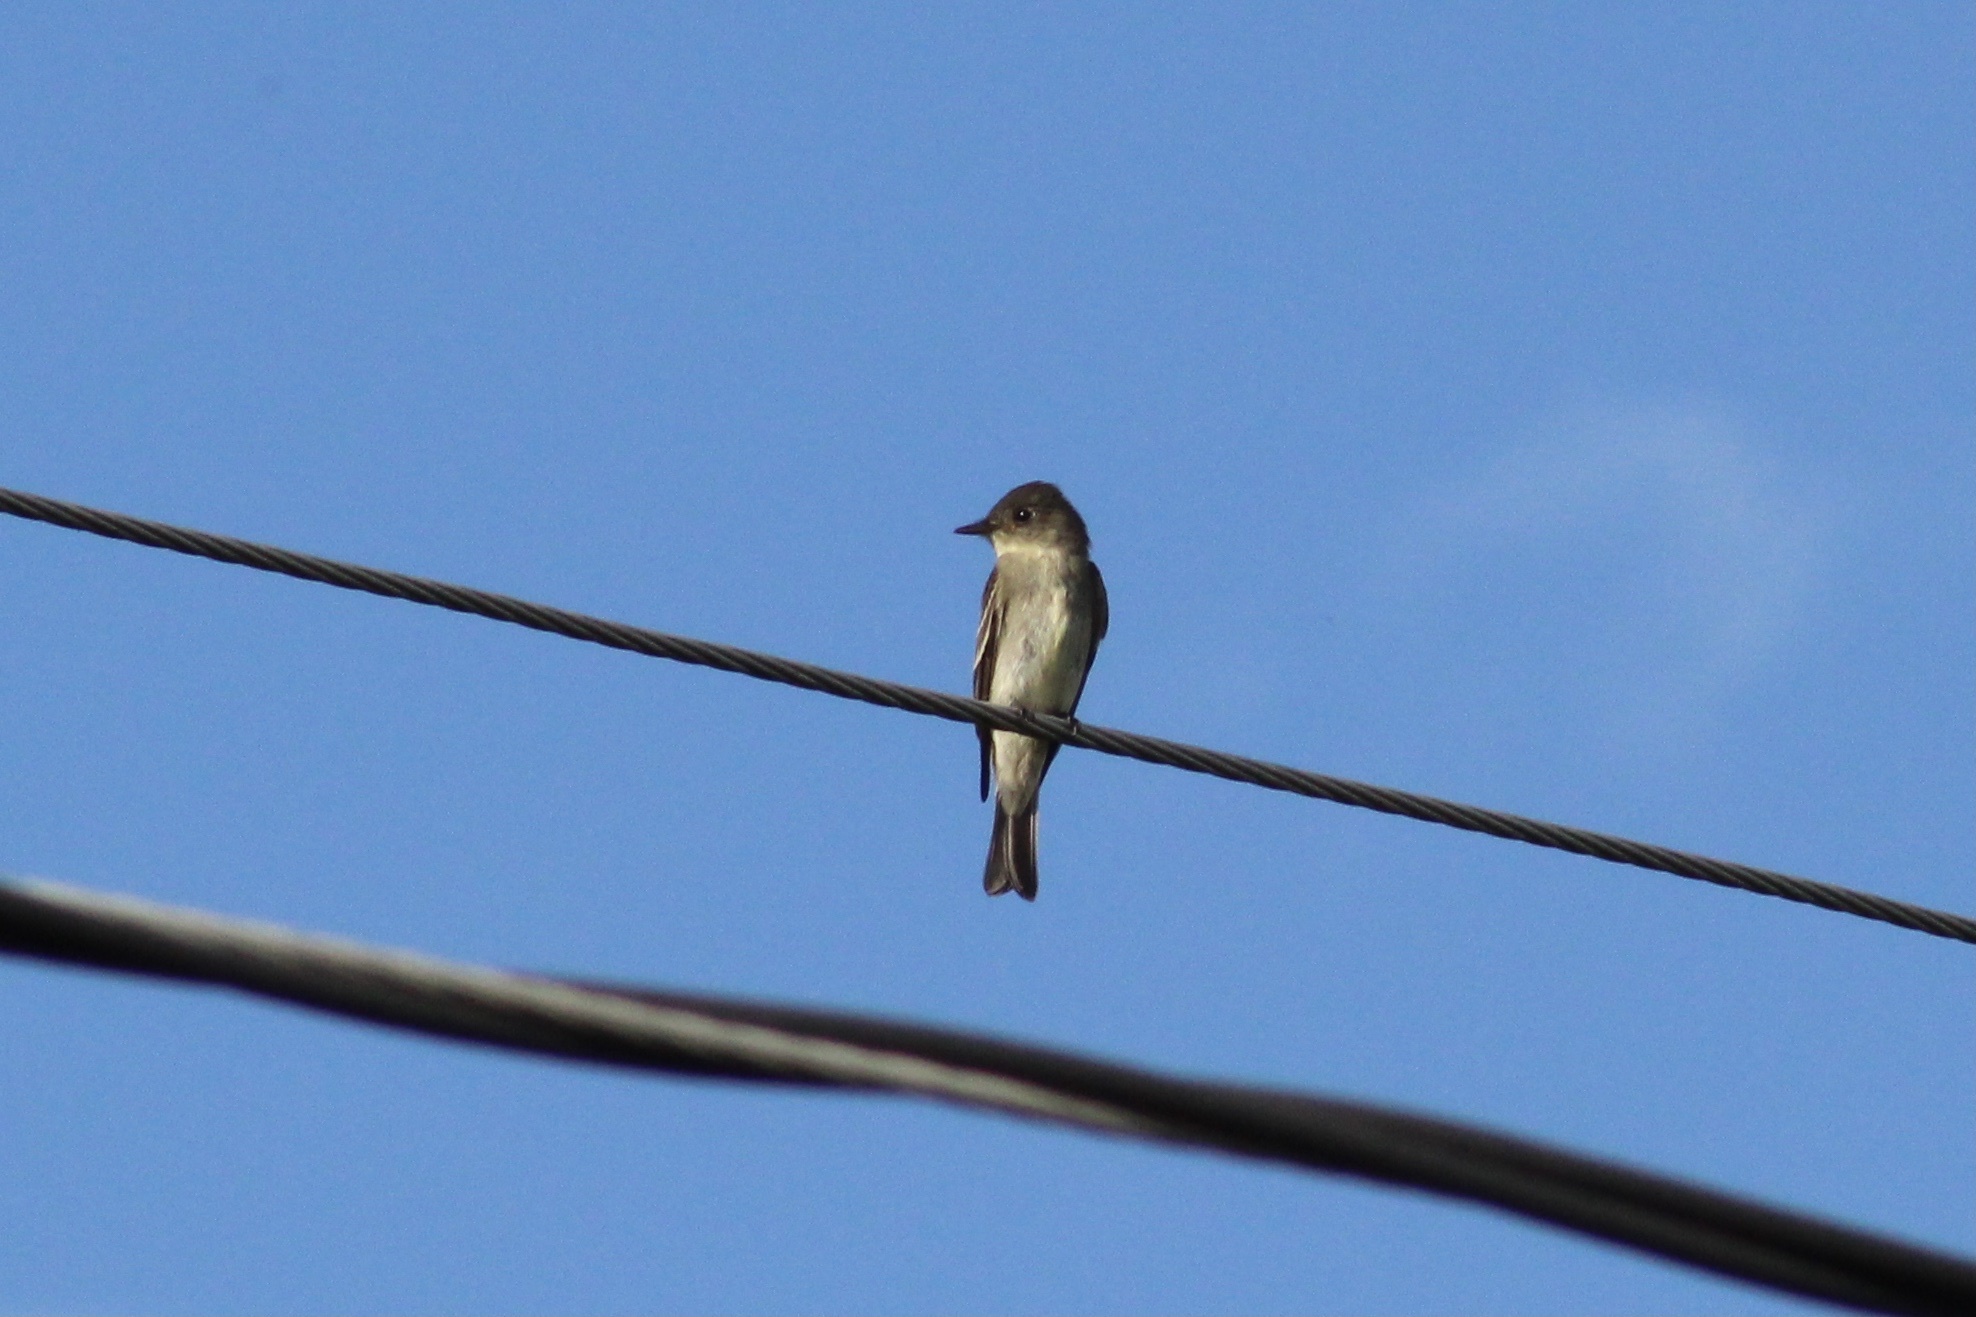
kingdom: Animalia
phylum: Chordata
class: Aves
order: Passeriformes
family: Tyrannidae
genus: Contopus
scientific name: Contopus virens
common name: Eastern wood-pewee
